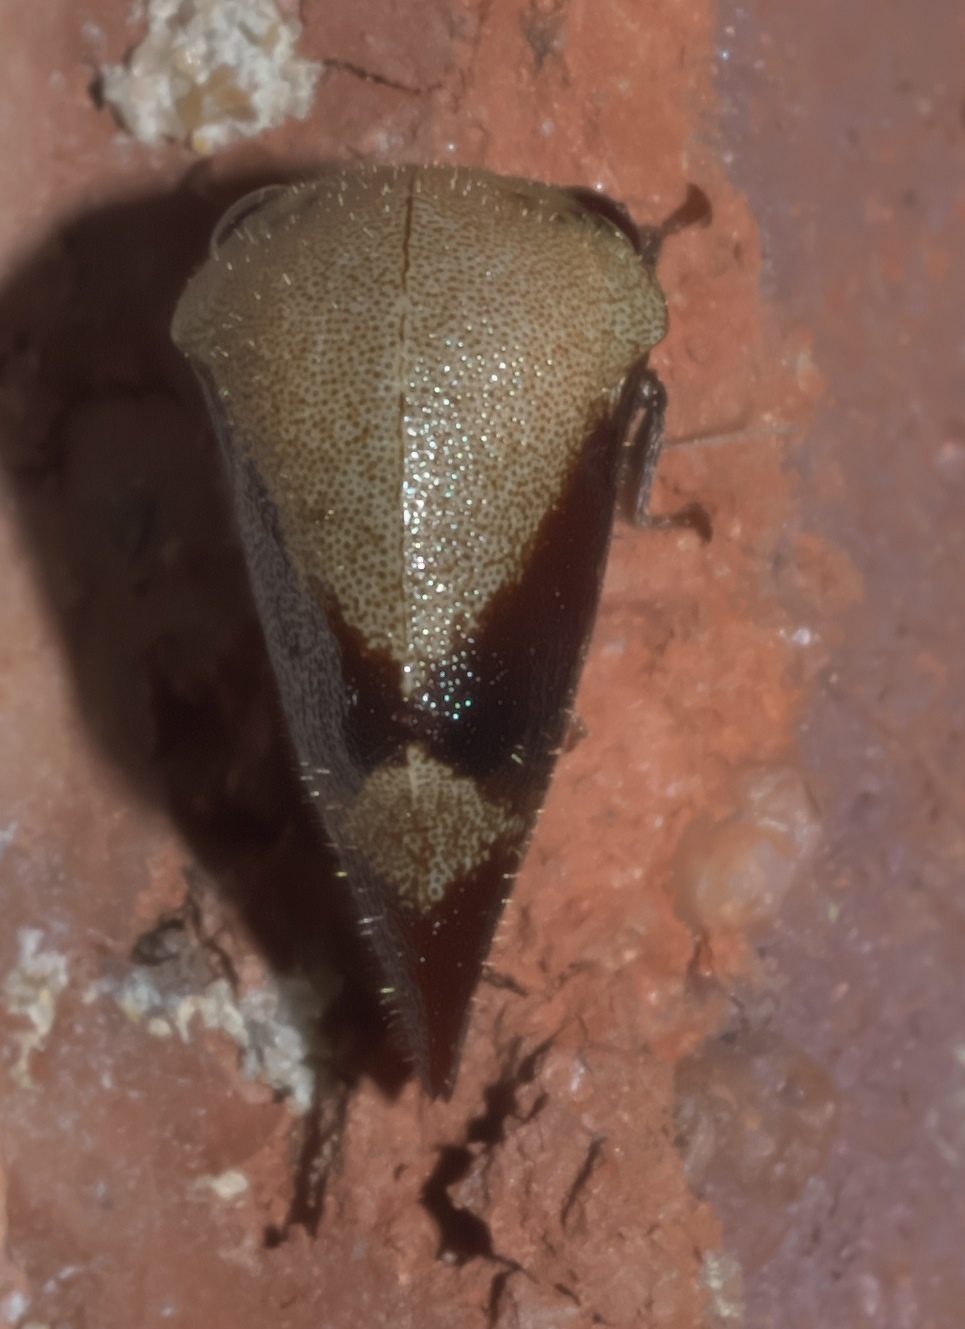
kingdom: Animalia
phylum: Arthropoda
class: Insecta
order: Hemiptera
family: Membracidae
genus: Carynota
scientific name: Carynota mera
